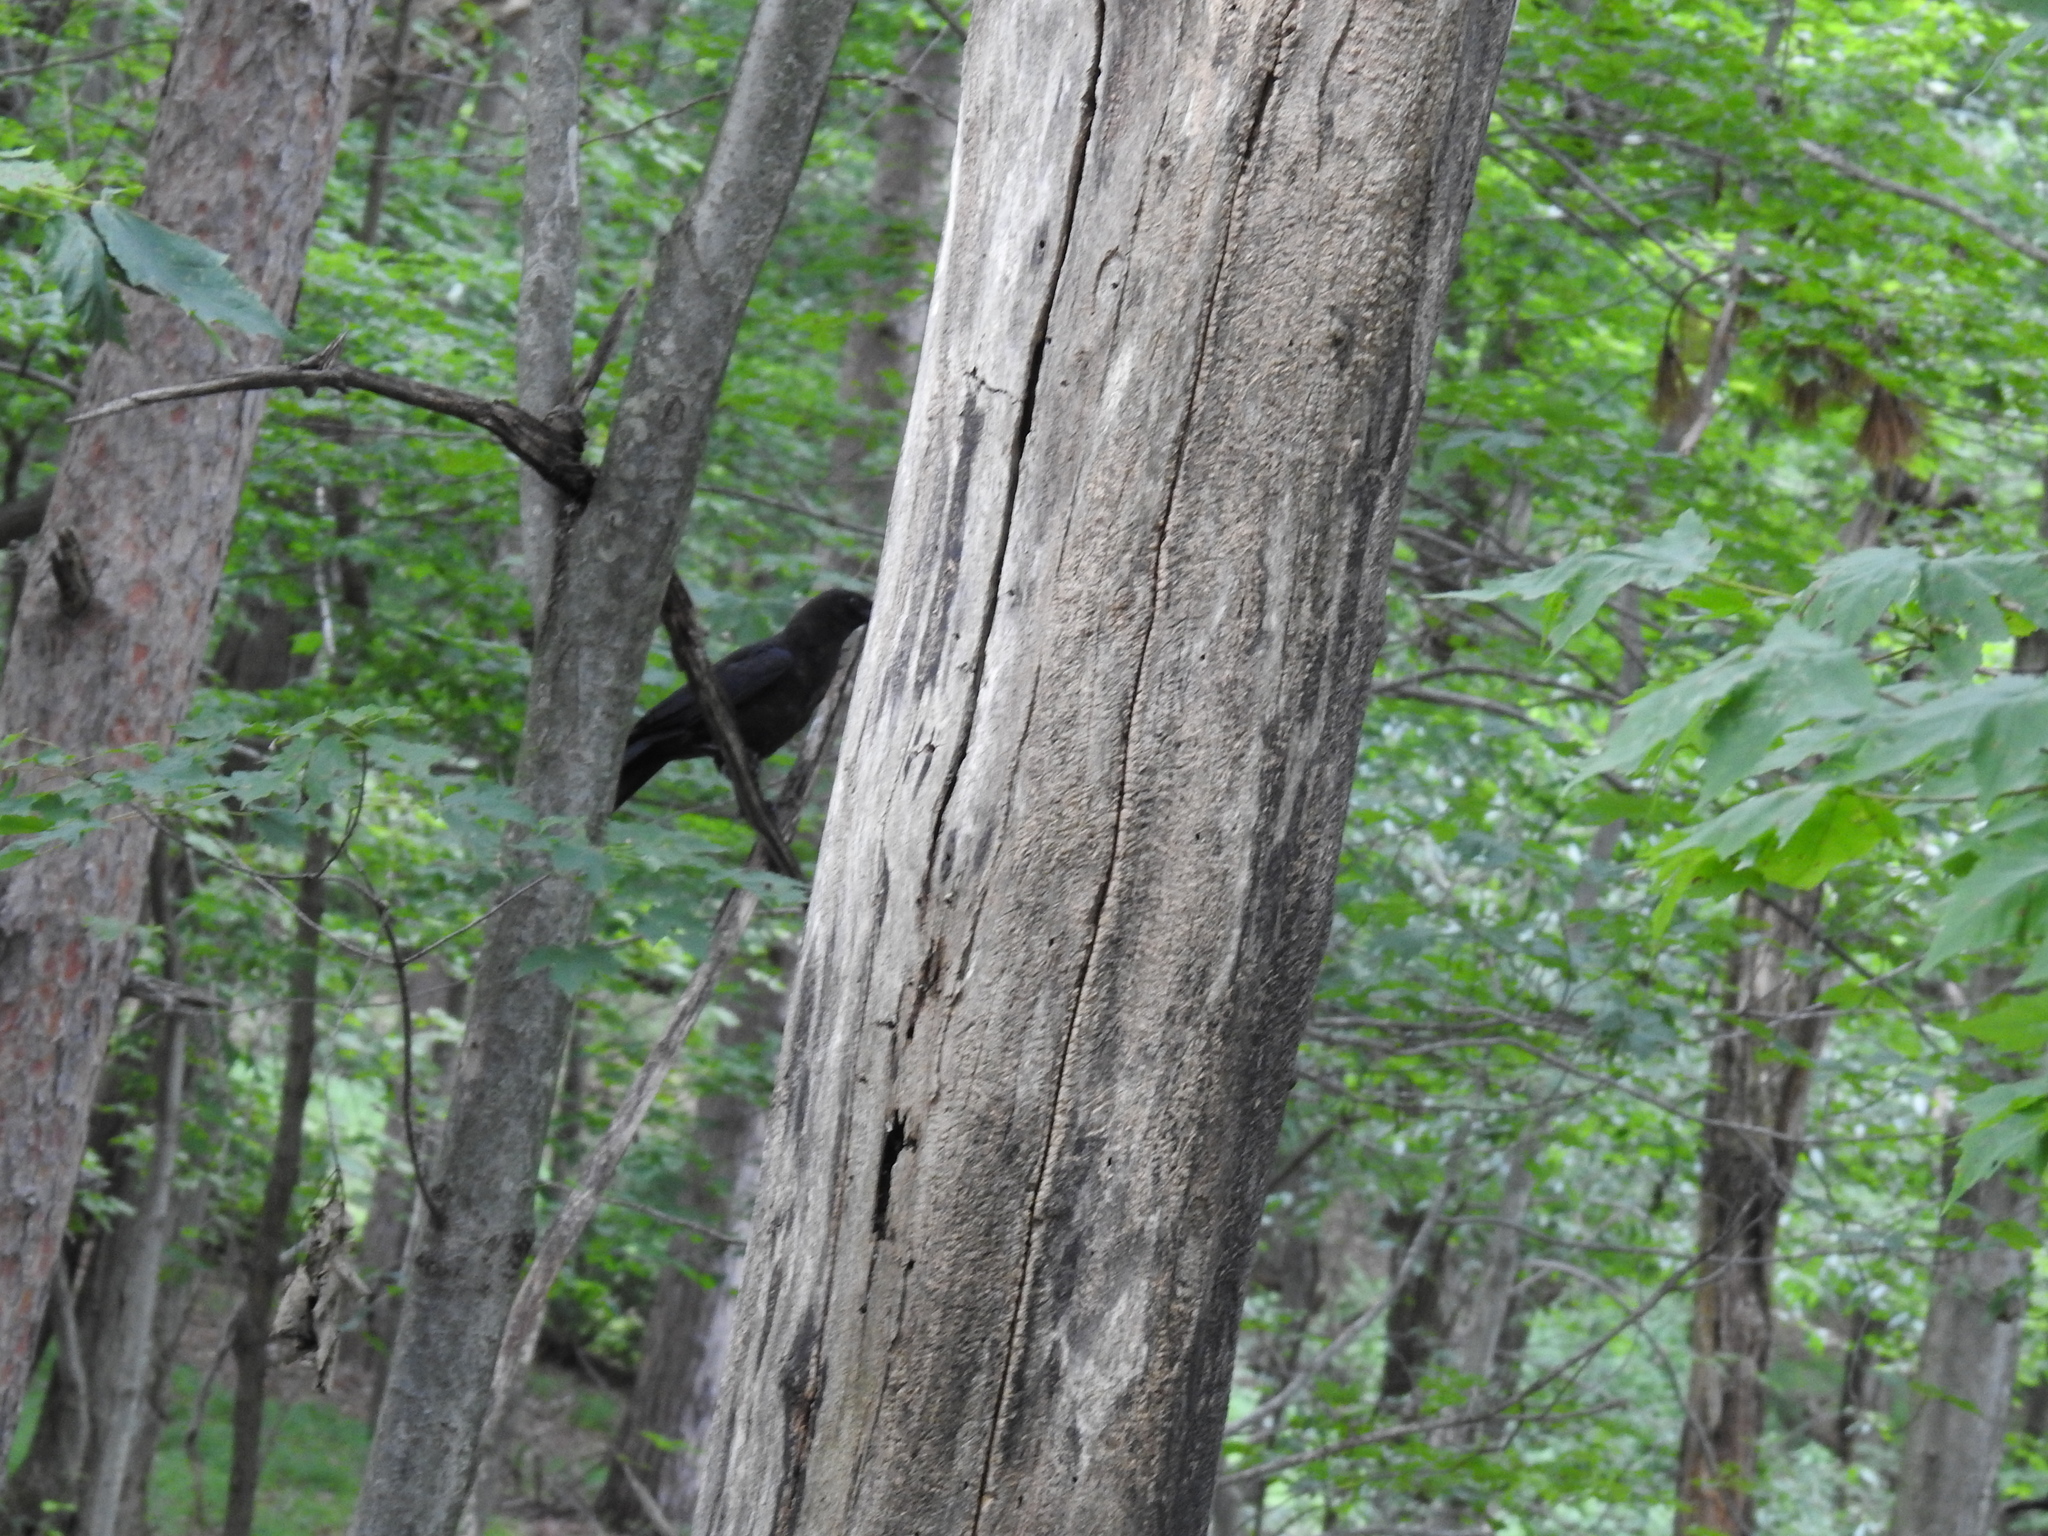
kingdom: Animalia
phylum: Chordata
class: Aves
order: Passeriformes
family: Corvidae
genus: Corvus
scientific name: Corvus brachyrhynchos
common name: American crow
